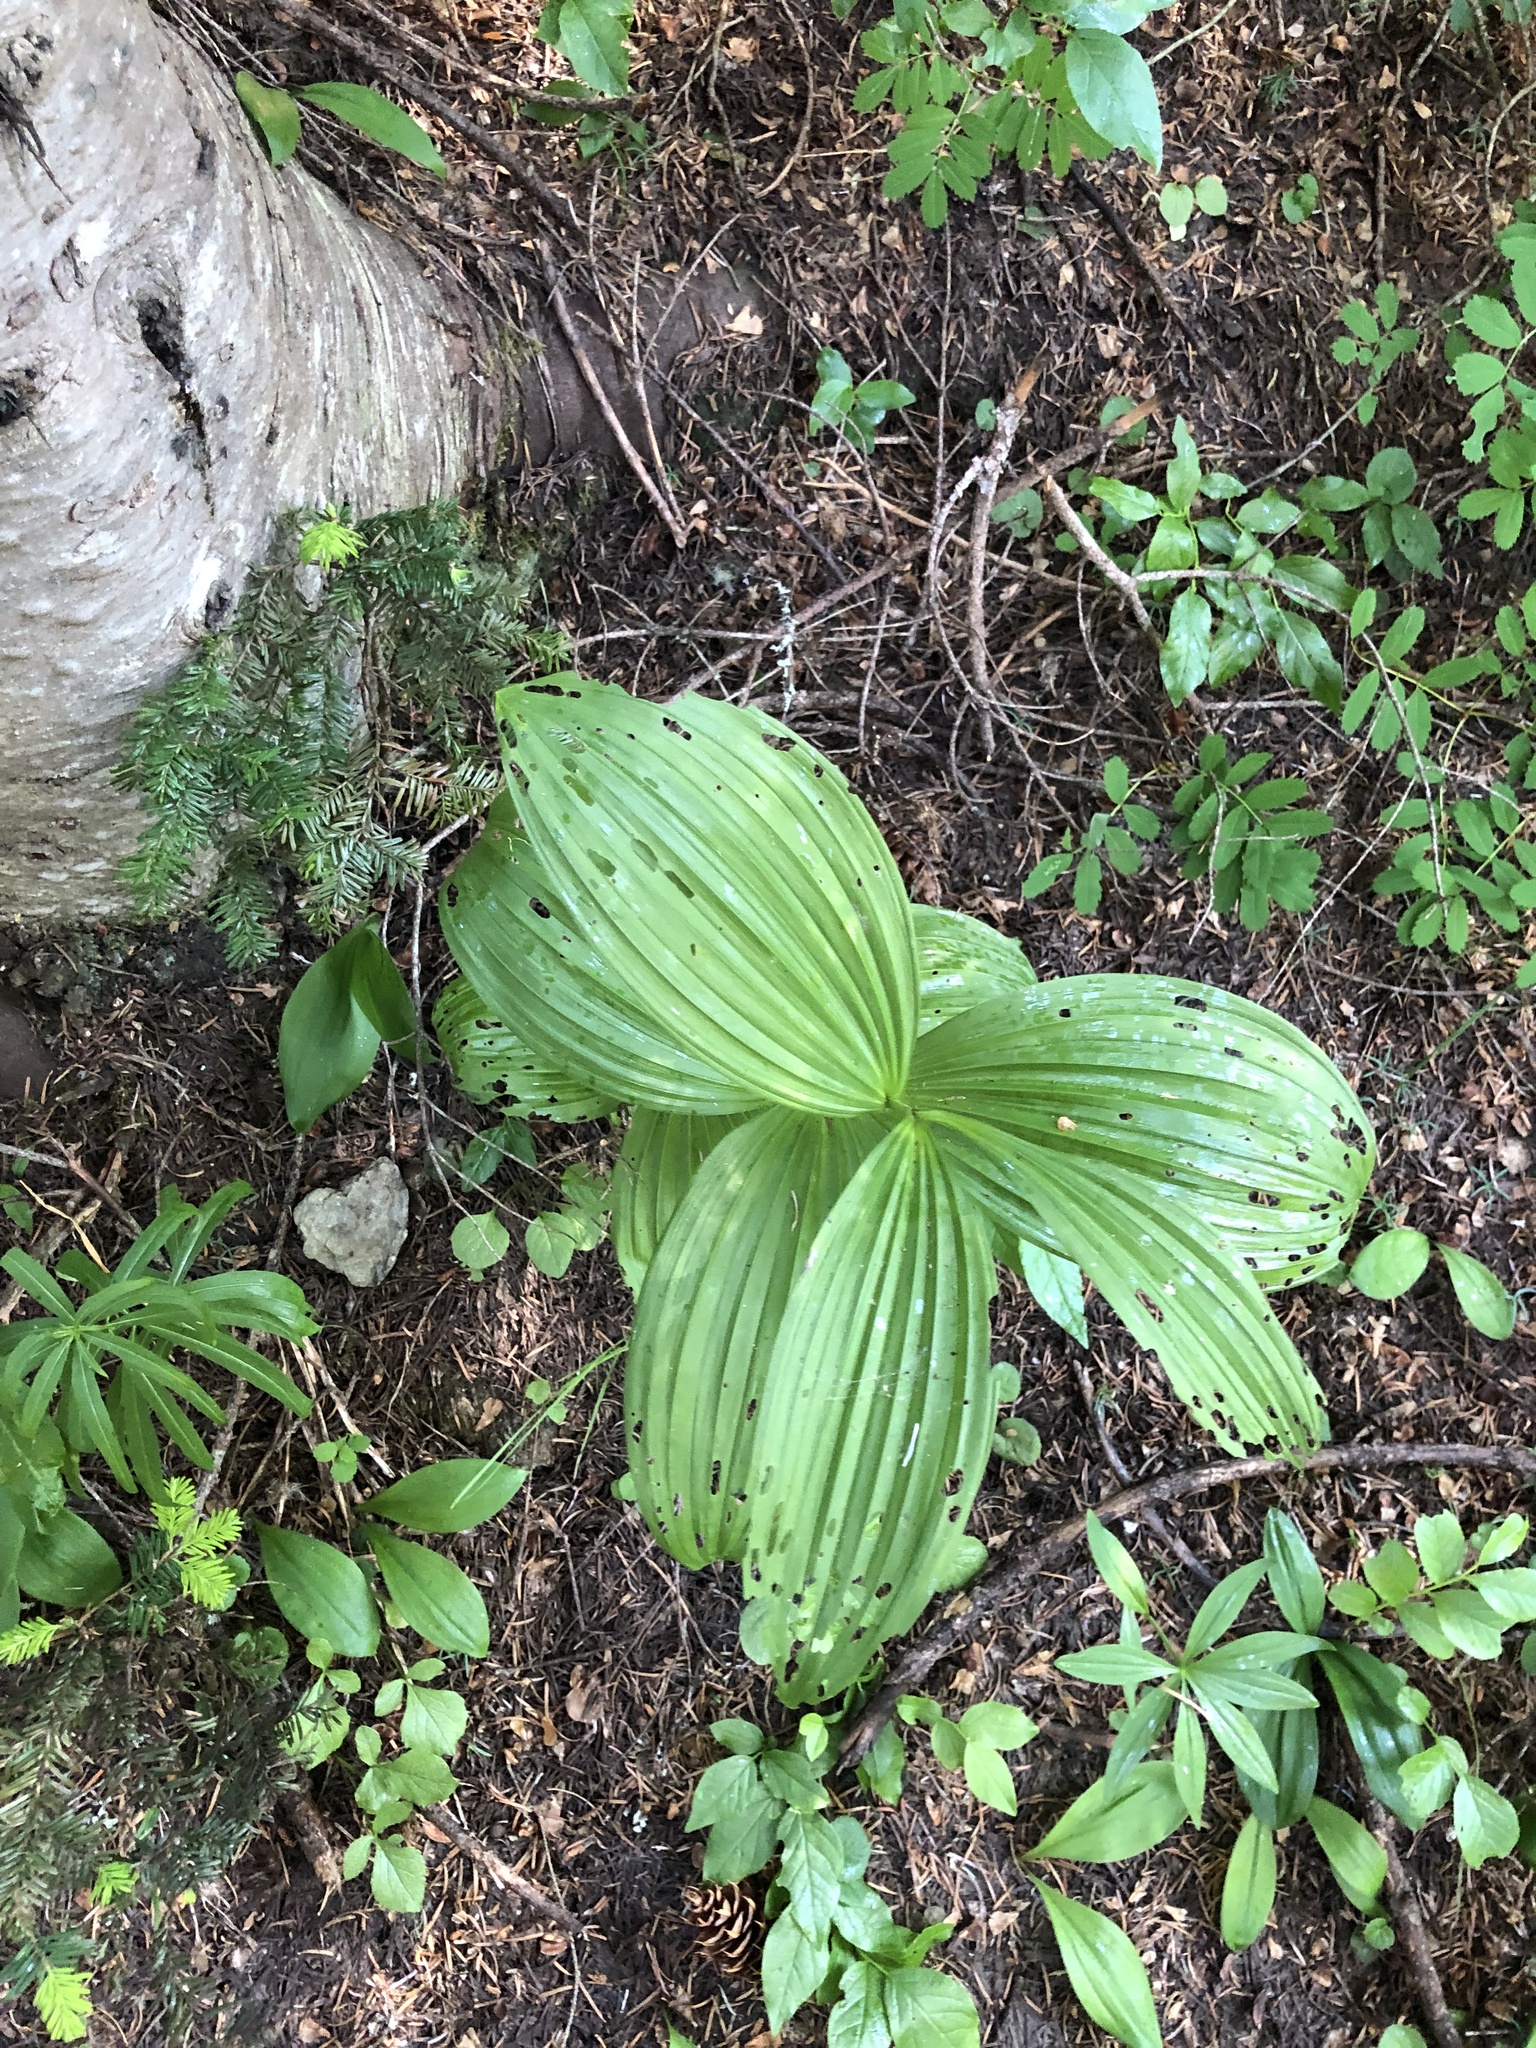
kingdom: Plantae
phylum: Tracheophyta
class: Liliopsida
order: Liliales
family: Melanthiaceae
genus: Veratrum
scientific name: Veratrum viride
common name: American false hellebore
